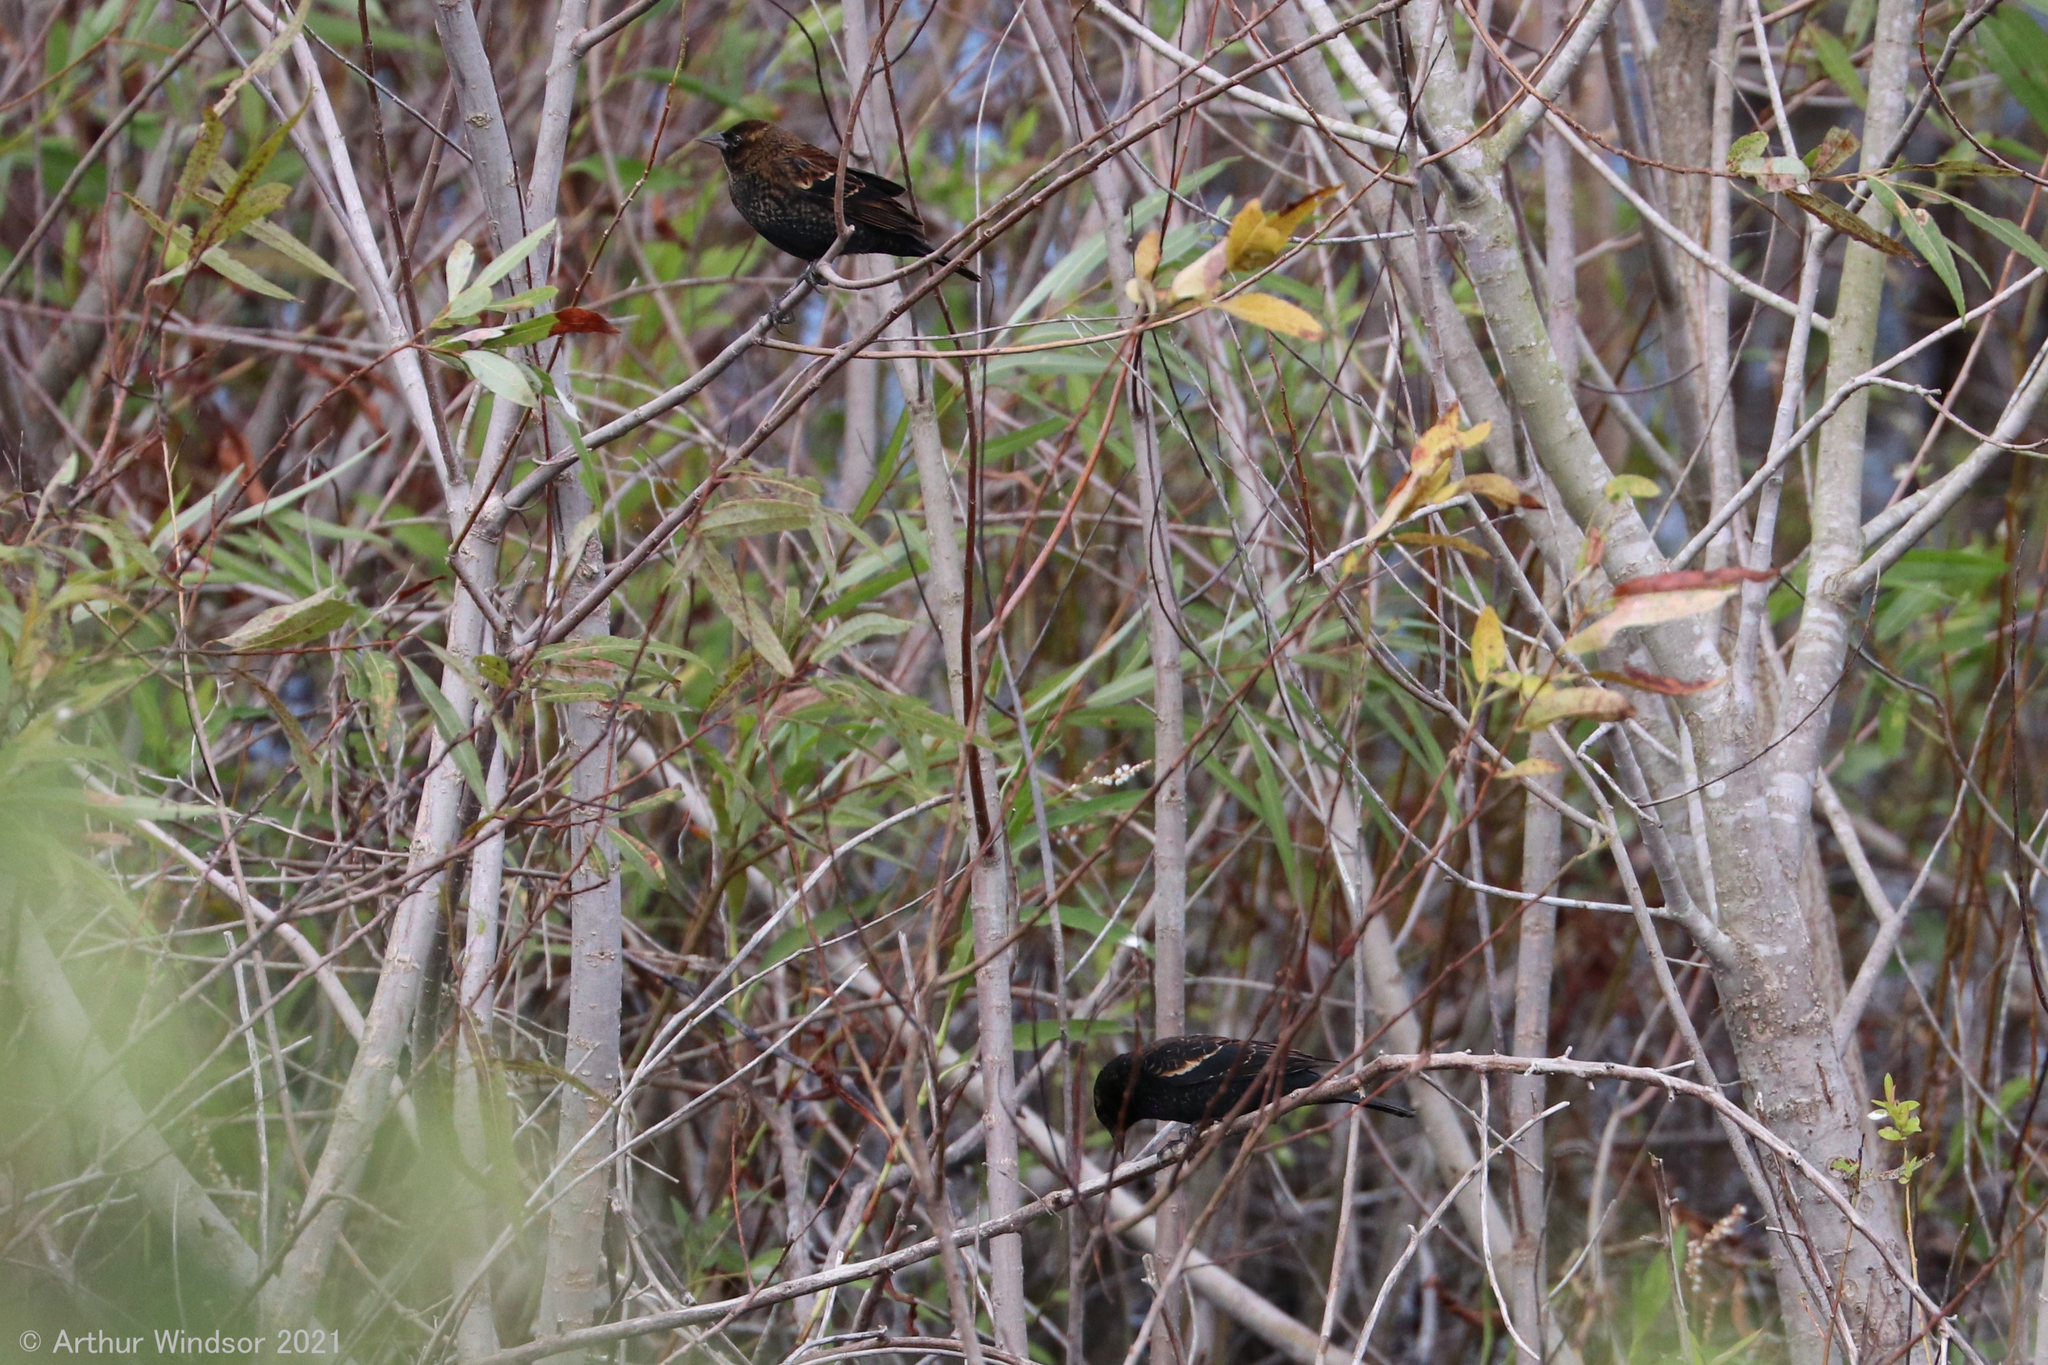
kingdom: Animalia
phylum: Chordata
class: Aves
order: Passeriformes
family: Icteridae
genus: Agelaius
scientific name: Agelaius phoeniceus
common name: Red-winged blackbird
